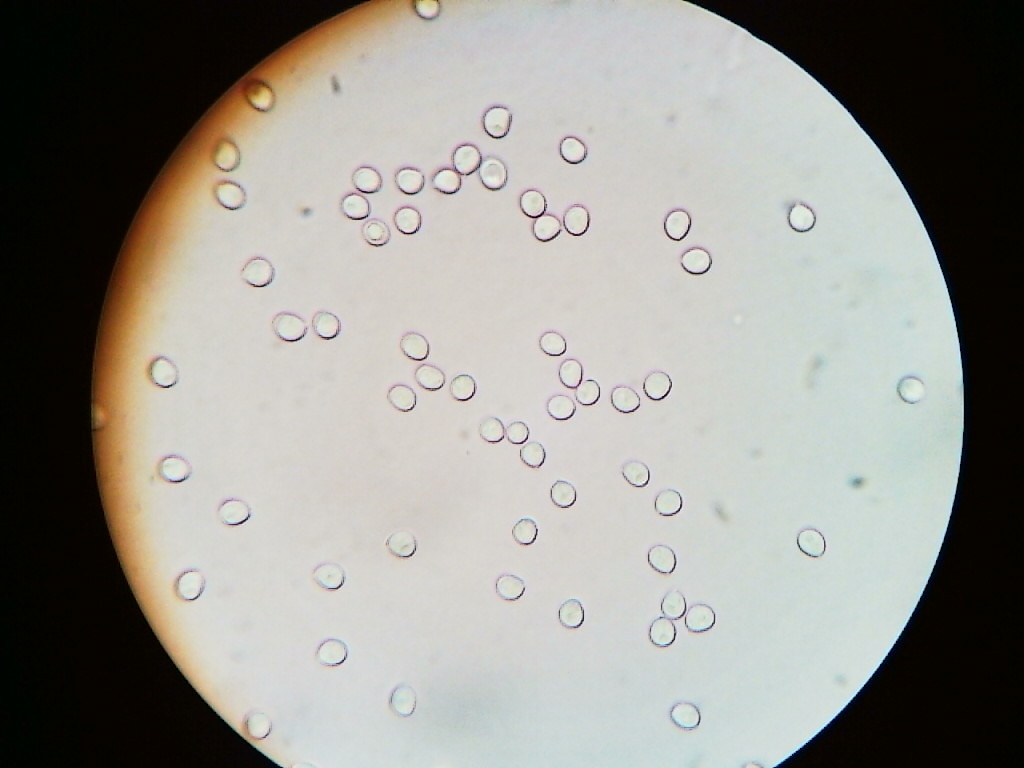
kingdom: Fungi
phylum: Basidiomycota
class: Agaricomycetes
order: Hymenochaetales
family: Hymenochaetaceae
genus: Phellinopsis
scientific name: Phellinopsis conchata
